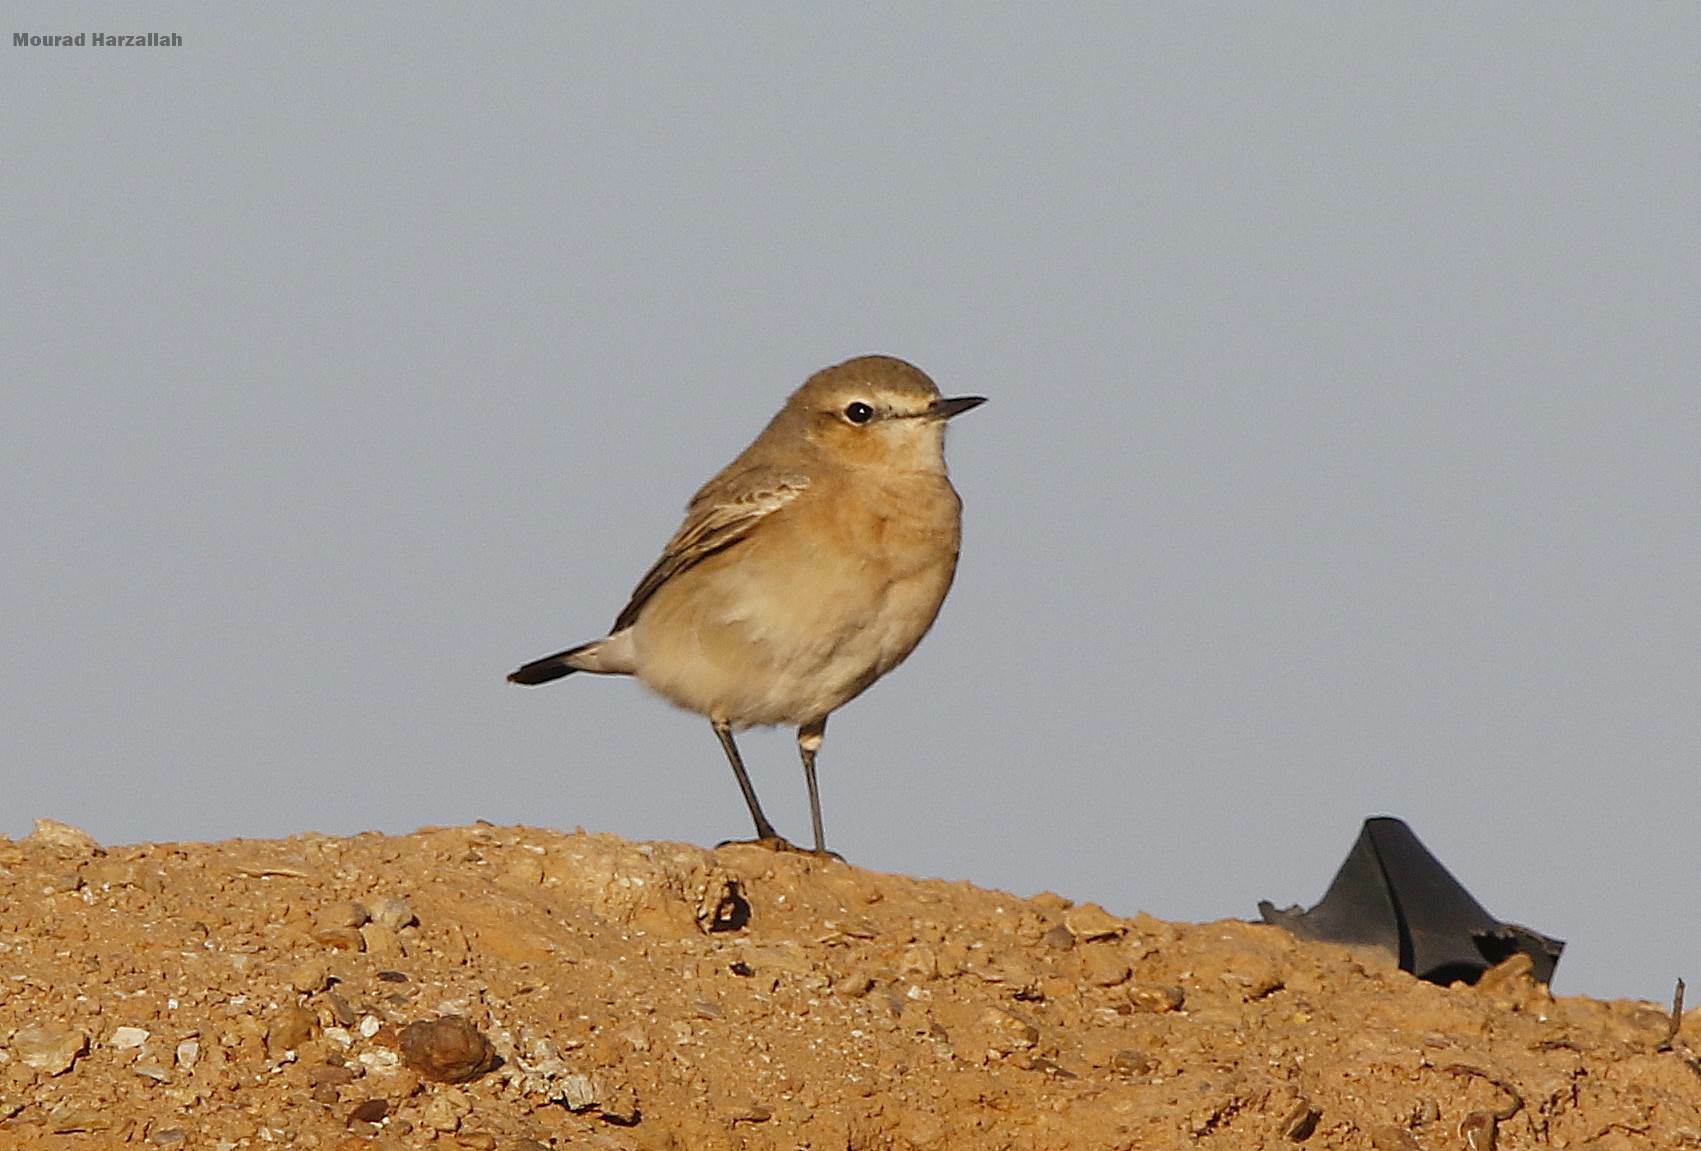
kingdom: Animalia
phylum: Chordata
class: Aves
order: Passeriformes
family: Muscicapidae
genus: Oenanthe
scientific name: Oenanthe isabellina
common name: Isabelline wheatear
